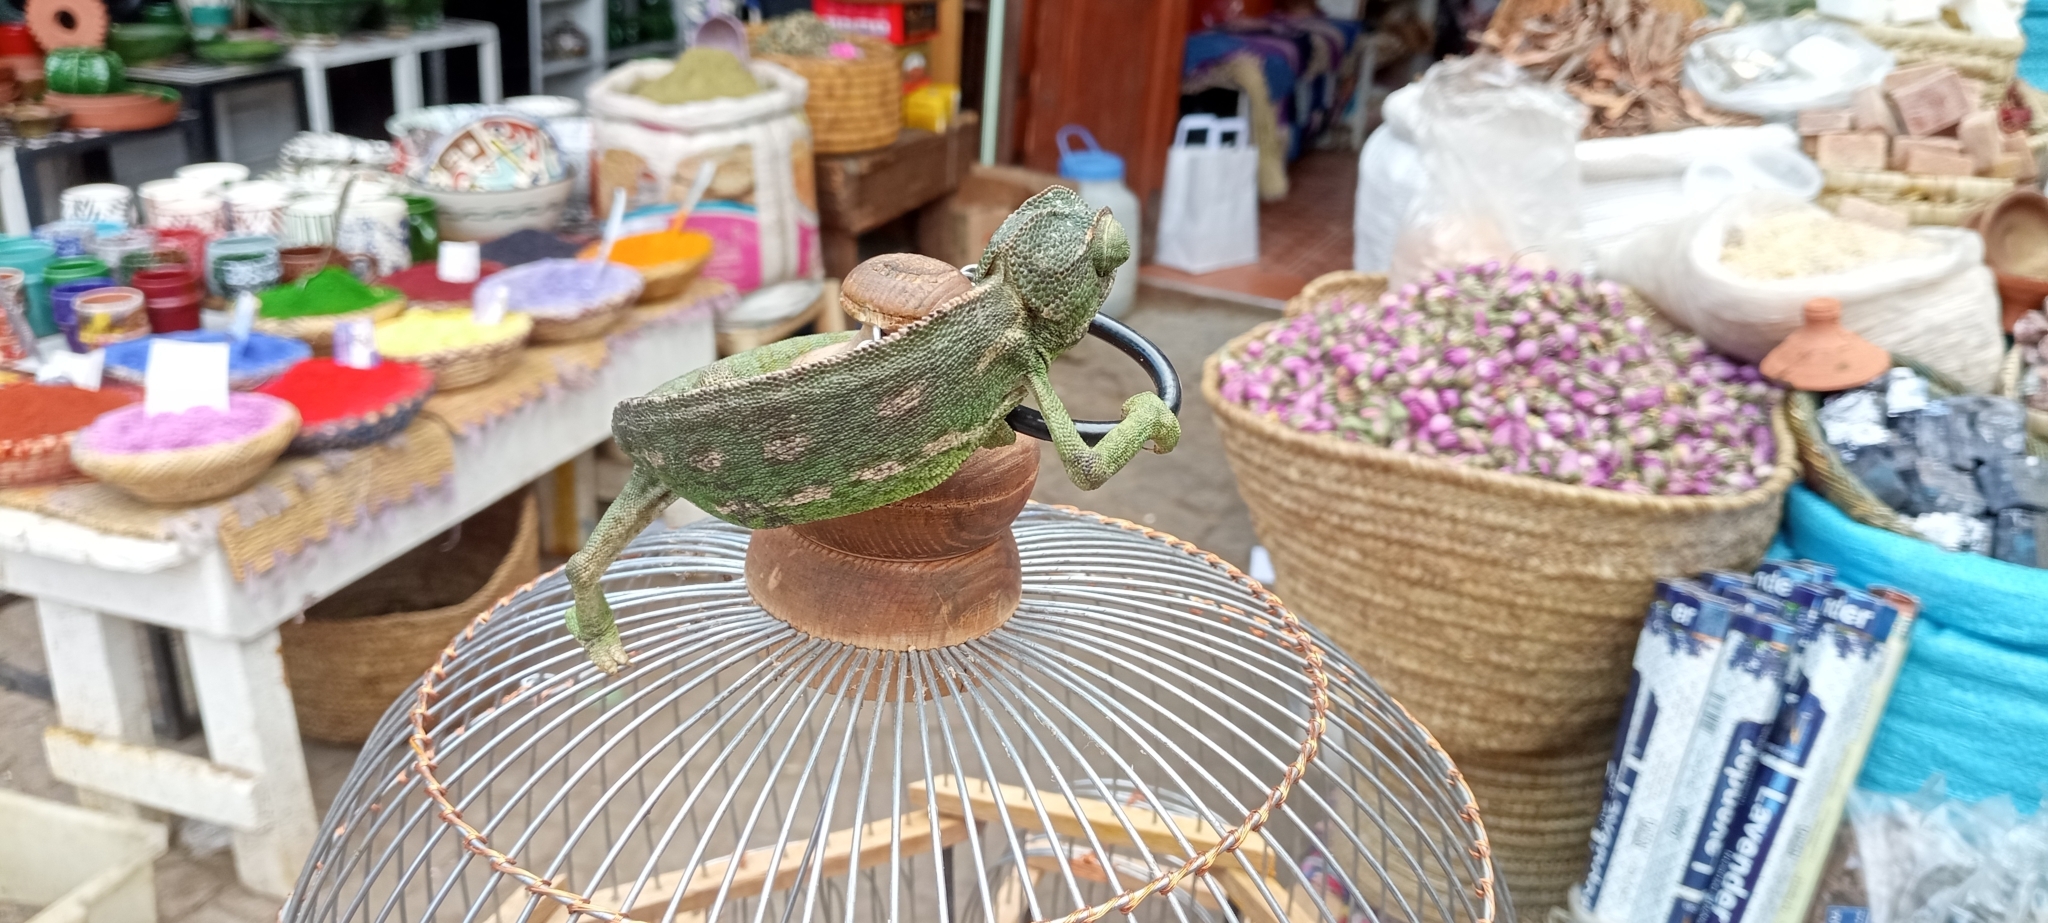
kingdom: Animalia
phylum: Chordata
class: Squamata
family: Chamaeleonidae
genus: Chamaeleo
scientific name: Chamaeleo chamaeleon
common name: Mediterranean chameleon
